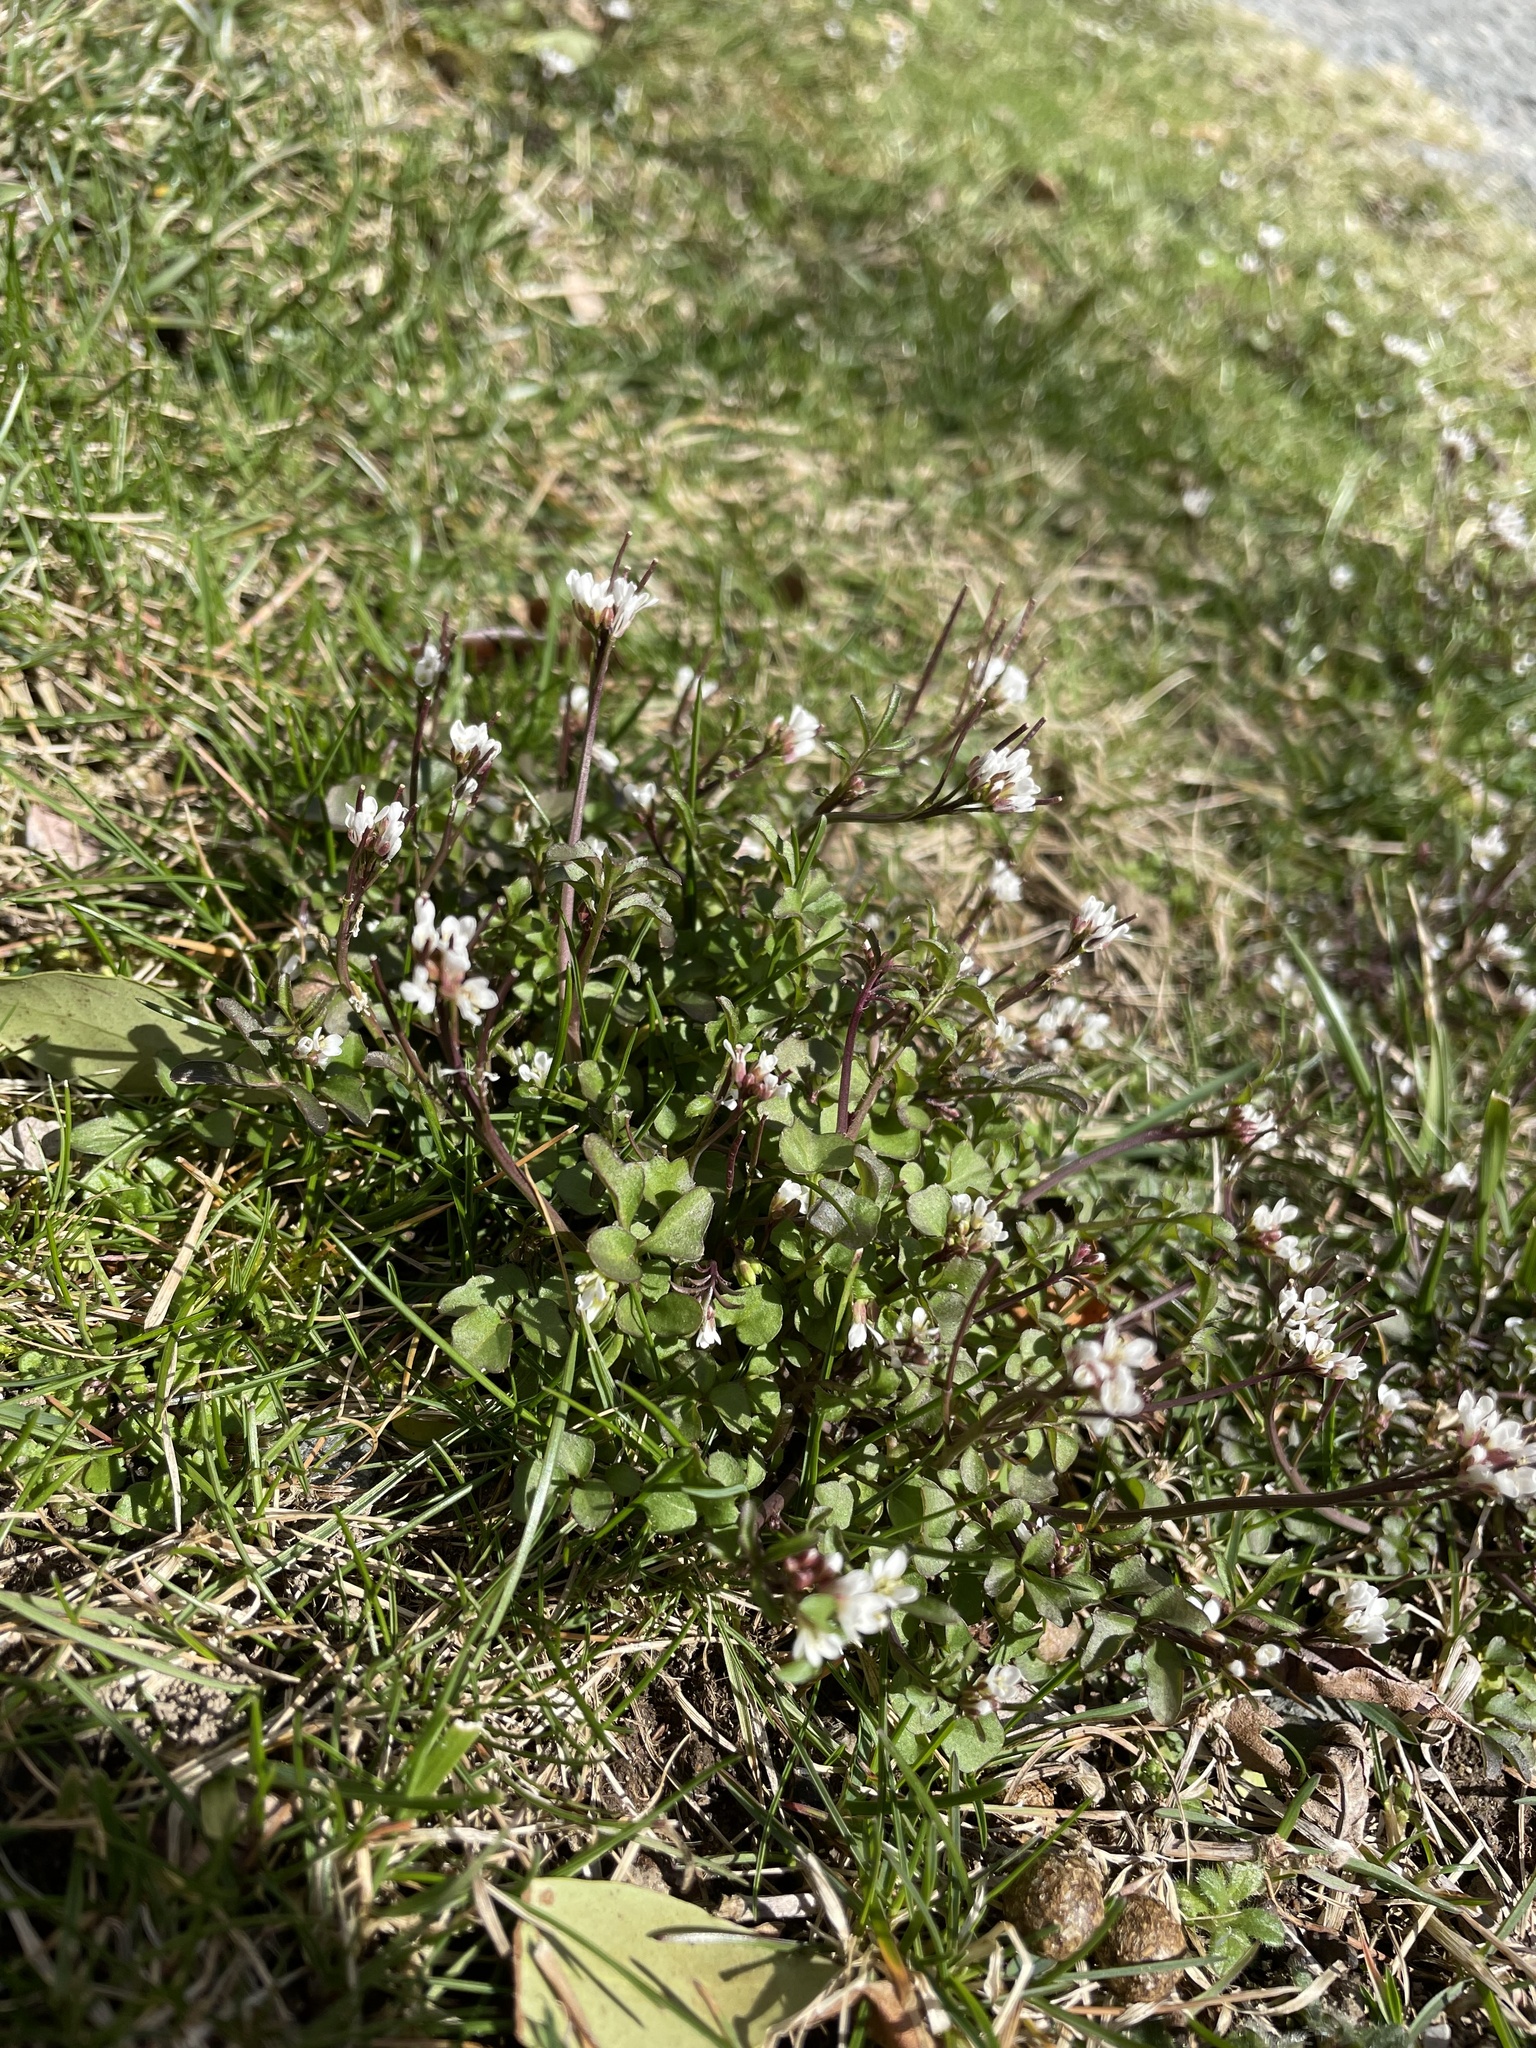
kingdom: Plantae
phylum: Tracheophyta
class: Magnoliopsida
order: Brassicales
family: Brassicaceae
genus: Cardamine
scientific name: Cardamine hirsuta
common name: Hairy bittercress
